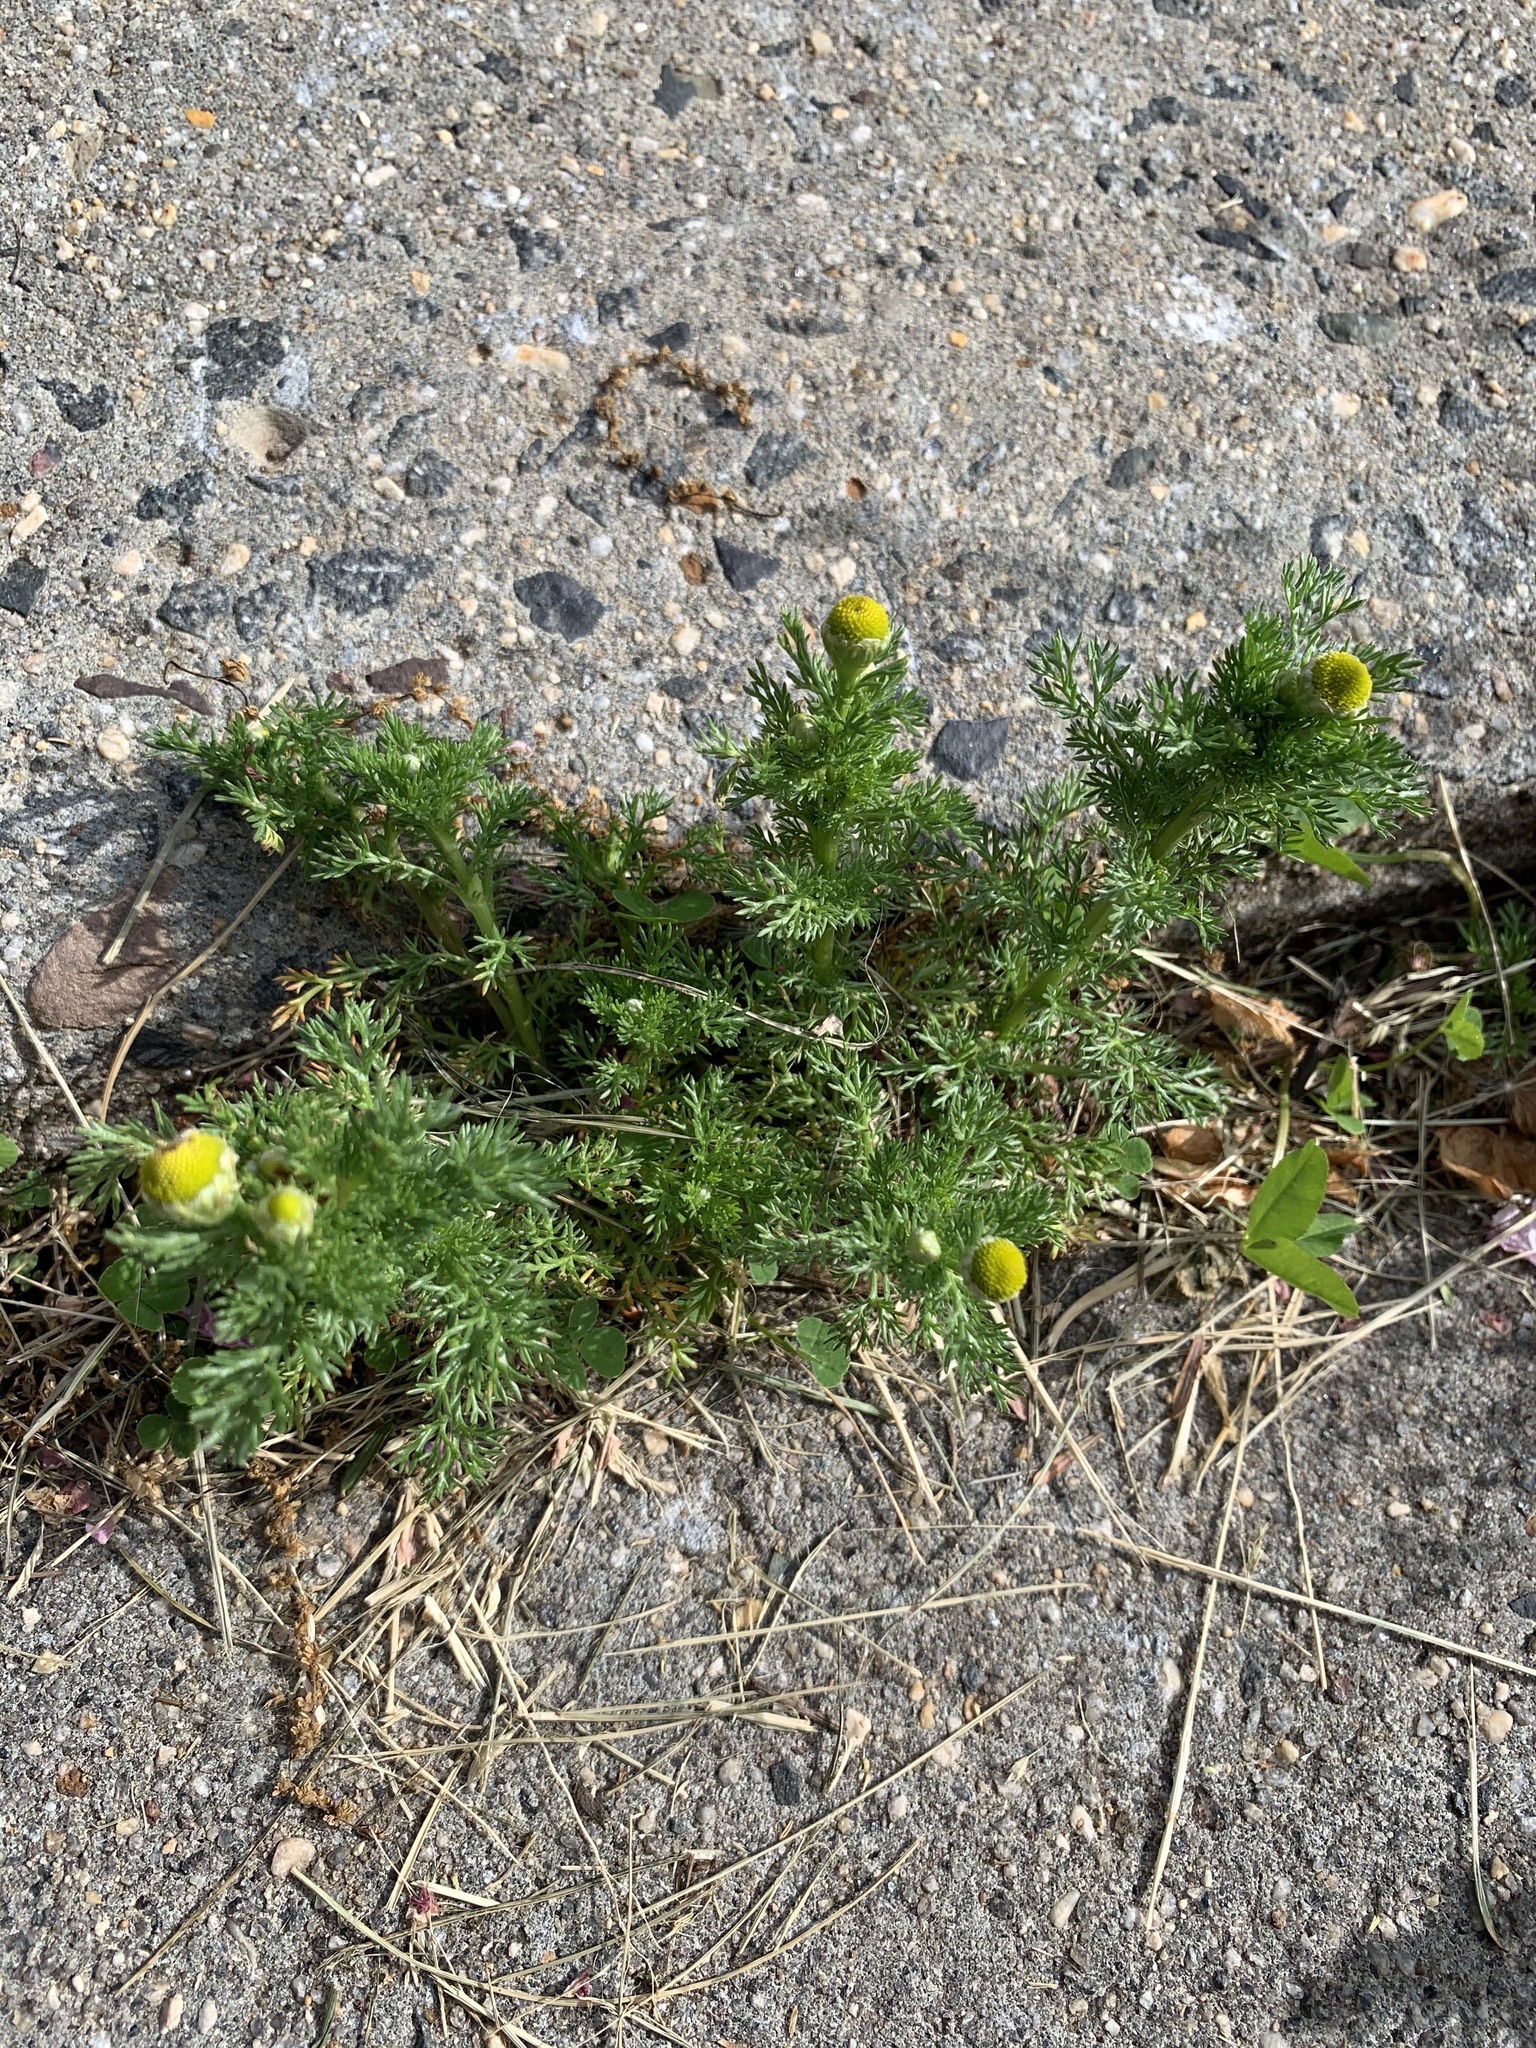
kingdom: Plantae
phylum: Tracheophyta
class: Magnoliopsida
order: Asterales
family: Asteraceae
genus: Matricaria
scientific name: Matricaria discoidea
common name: Disc mayweed
